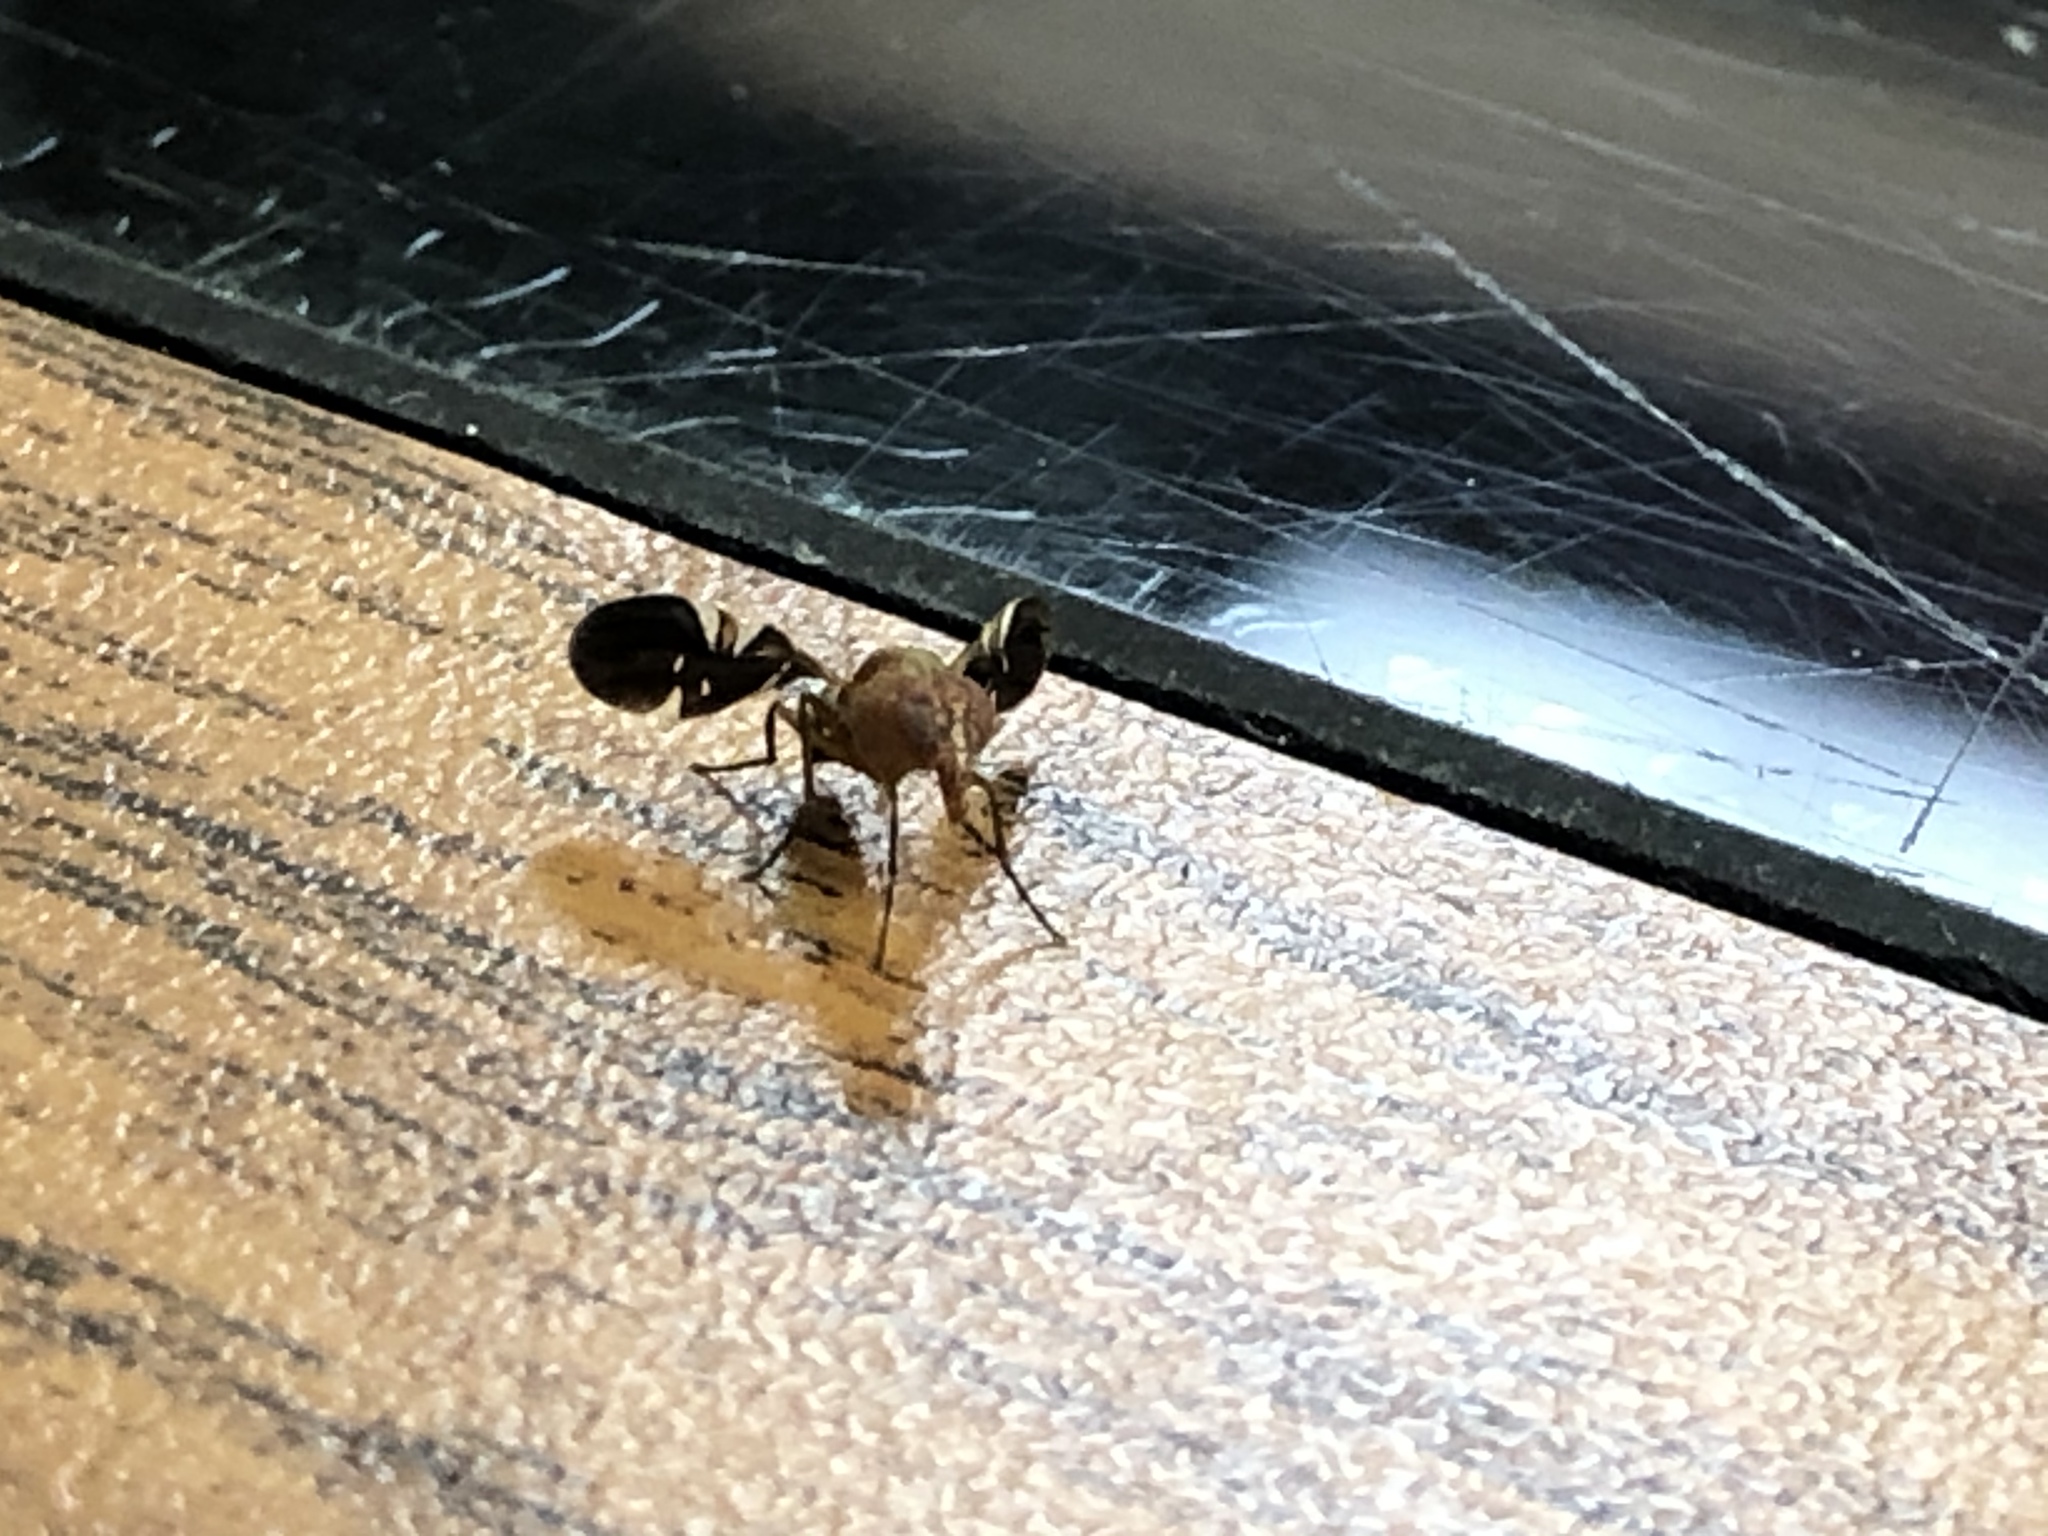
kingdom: Animalia
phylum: Arthropoda
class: Insecta
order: Diptera
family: Ulidiidae
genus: Delphinia
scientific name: Delphinia picta
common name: Common picture-winged fly
